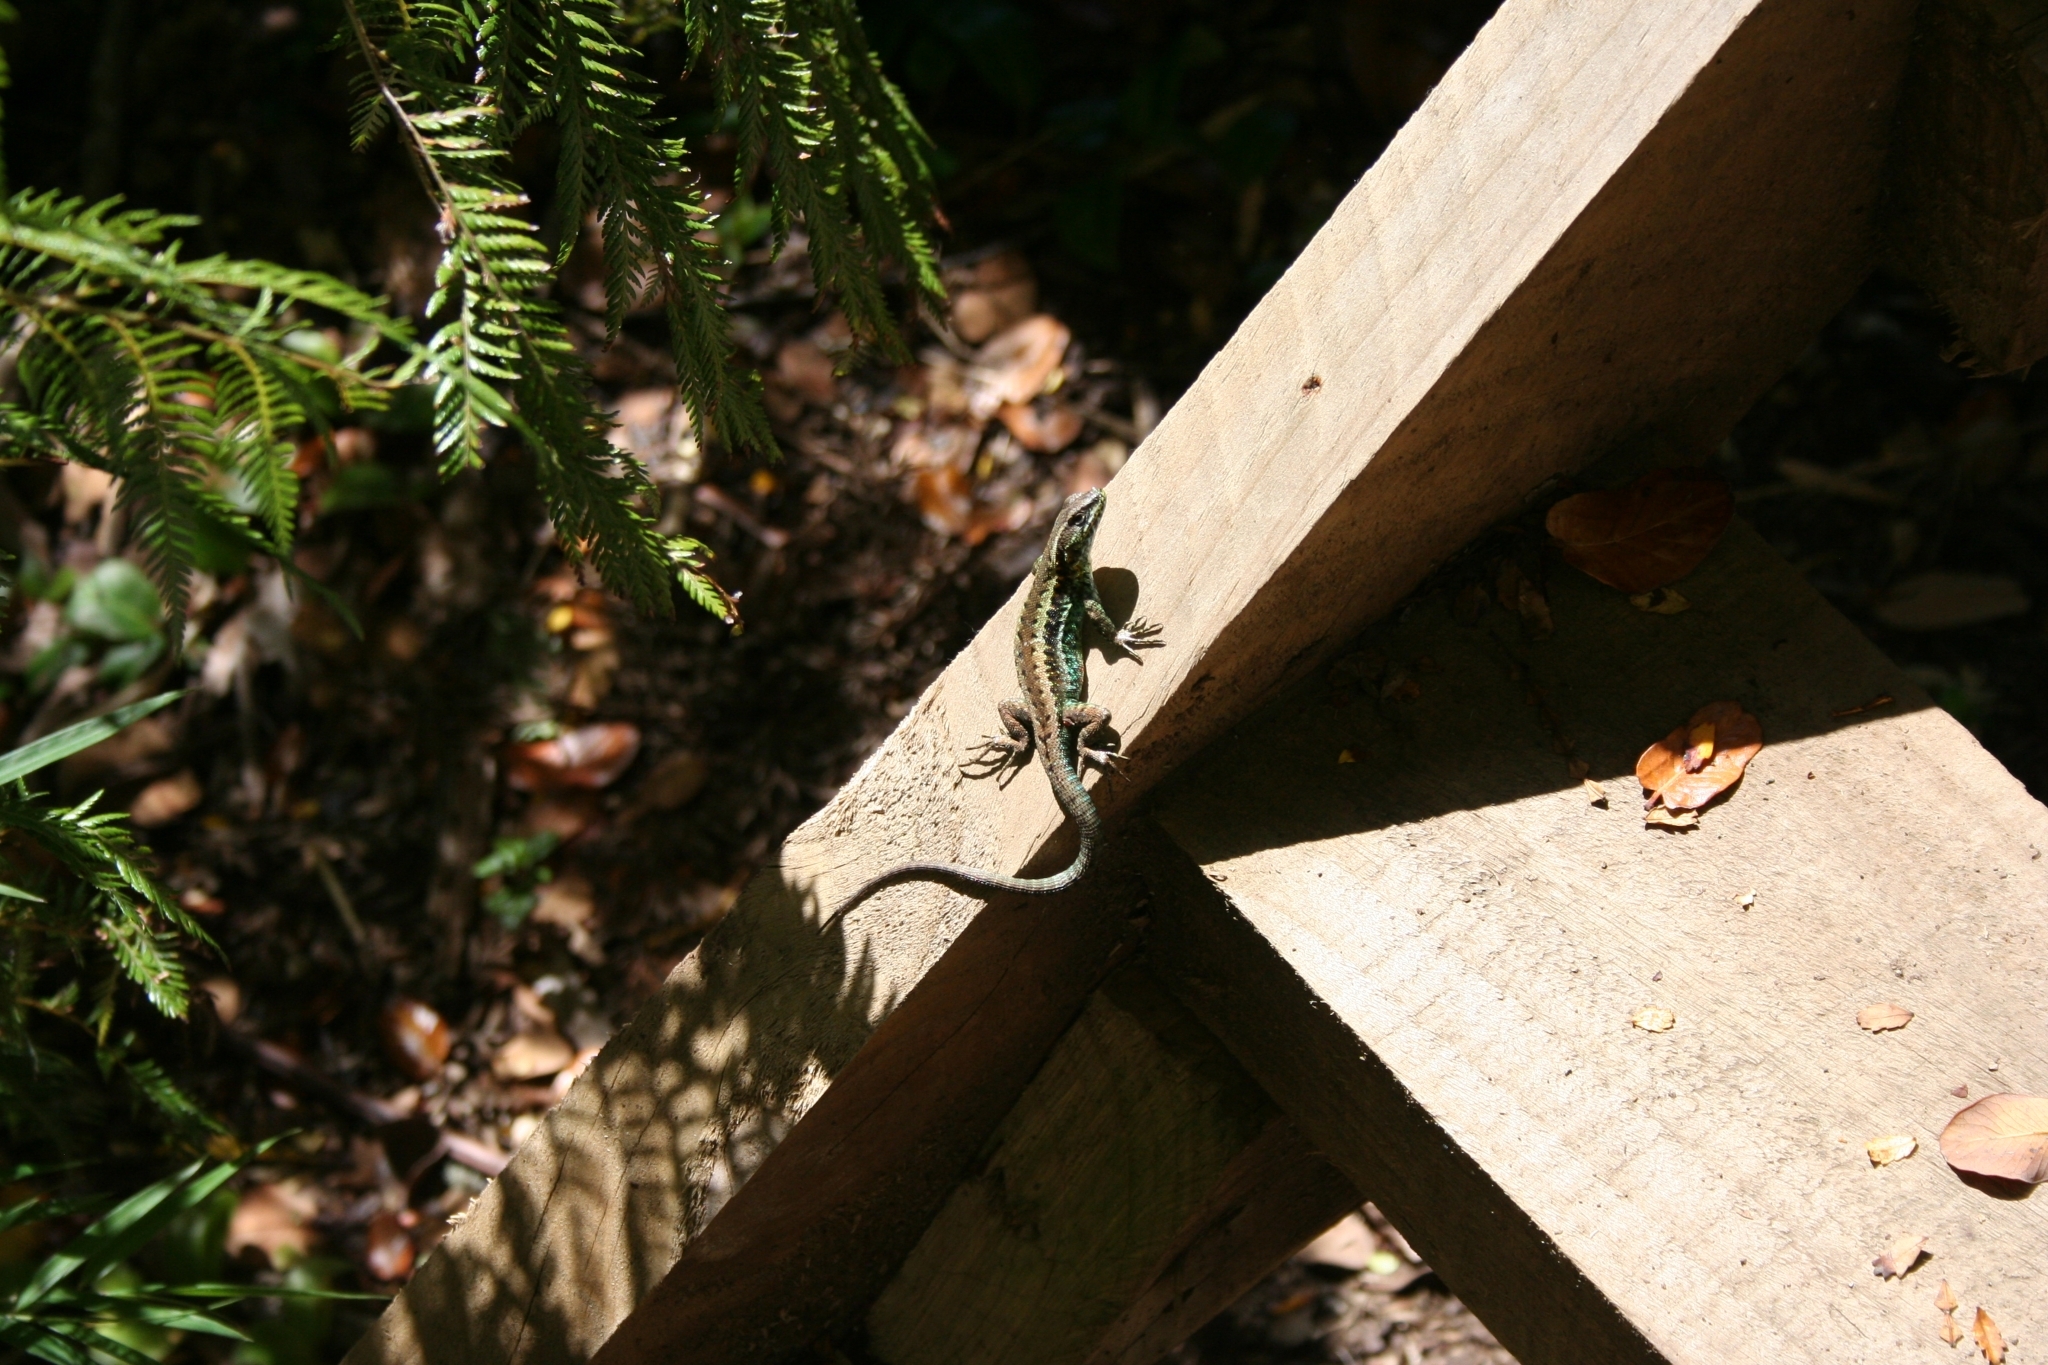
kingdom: Animalia
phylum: Chordata
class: Squamata
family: Liolaemidae
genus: Liolaemus
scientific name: Liolaemus pictus
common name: Painted tree iguana
